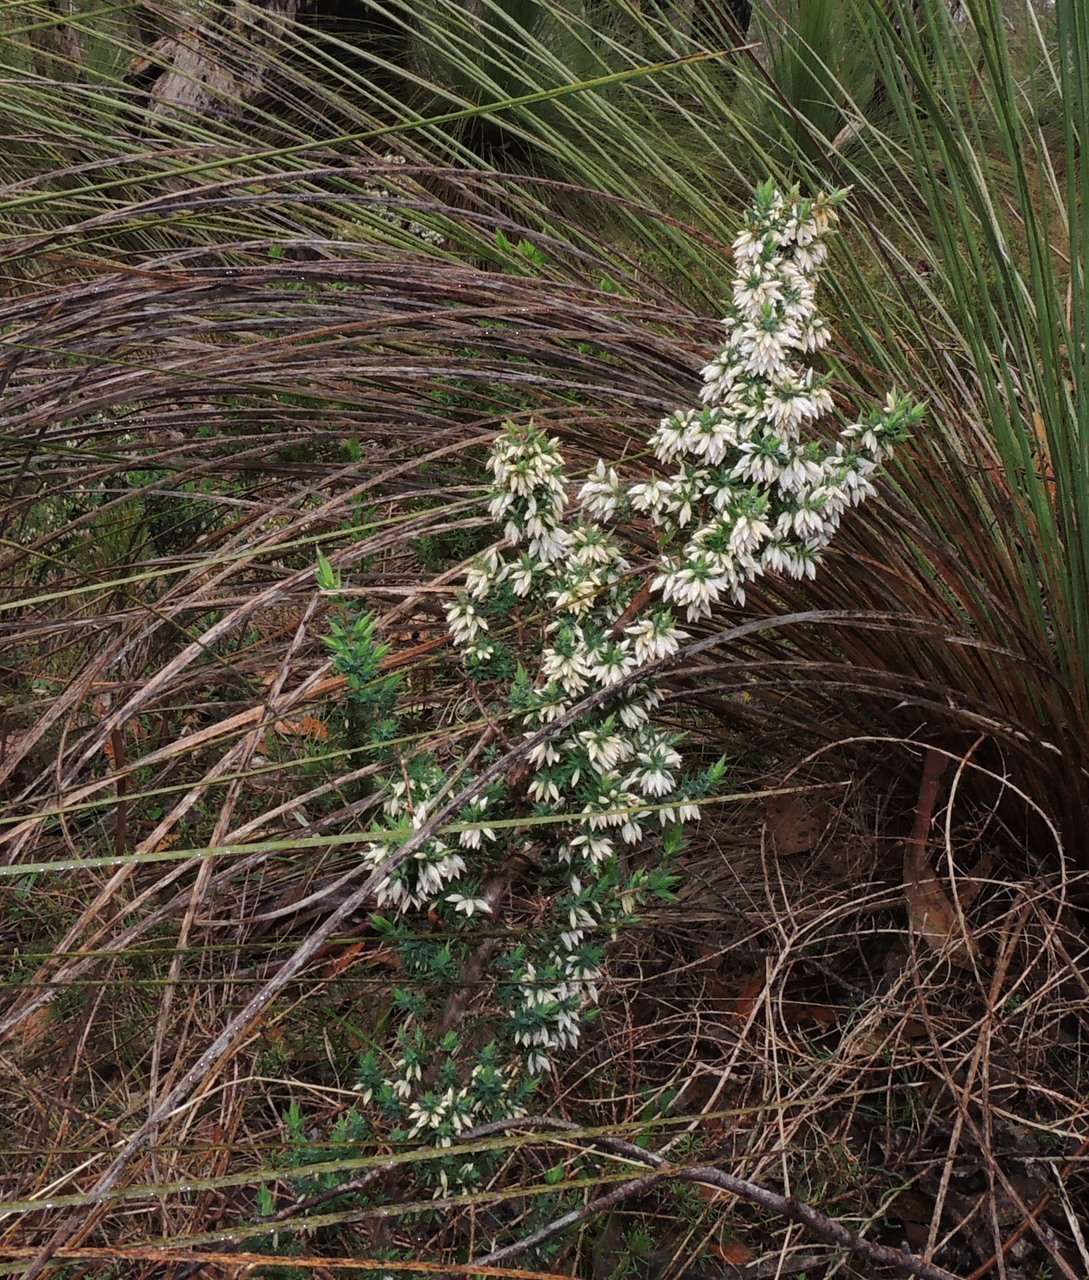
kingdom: Plantae
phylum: Tracheophyta
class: Magnoliopsida
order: Ericales
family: Ericaceae
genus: Styphelia
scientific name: Styphelia fletcheri
